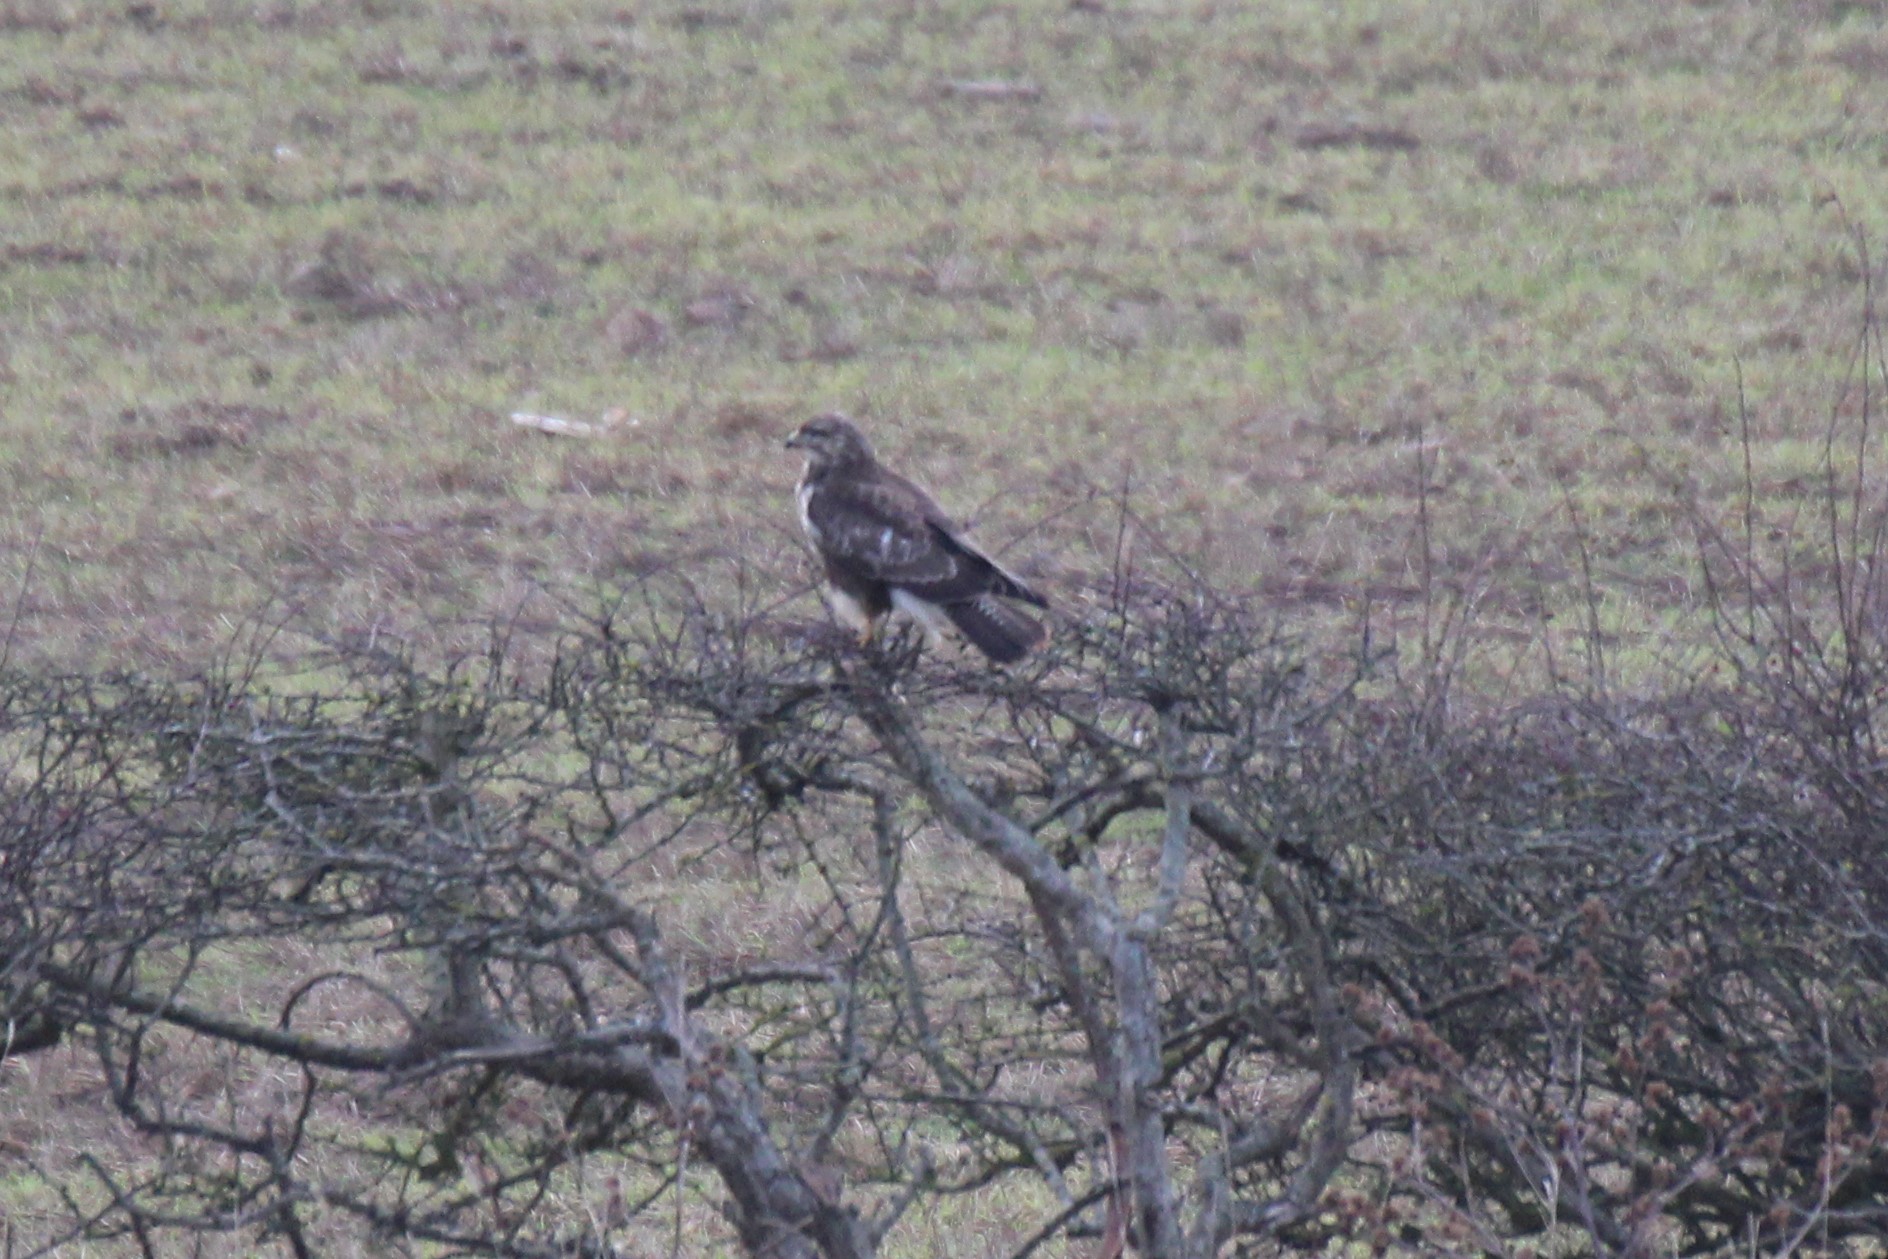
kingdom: Animalia
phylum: Chordata
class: Aves
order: Accipitriformes
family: Accipitridae
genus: Buteo
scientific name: Buteo buteo
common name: Common buzzard
